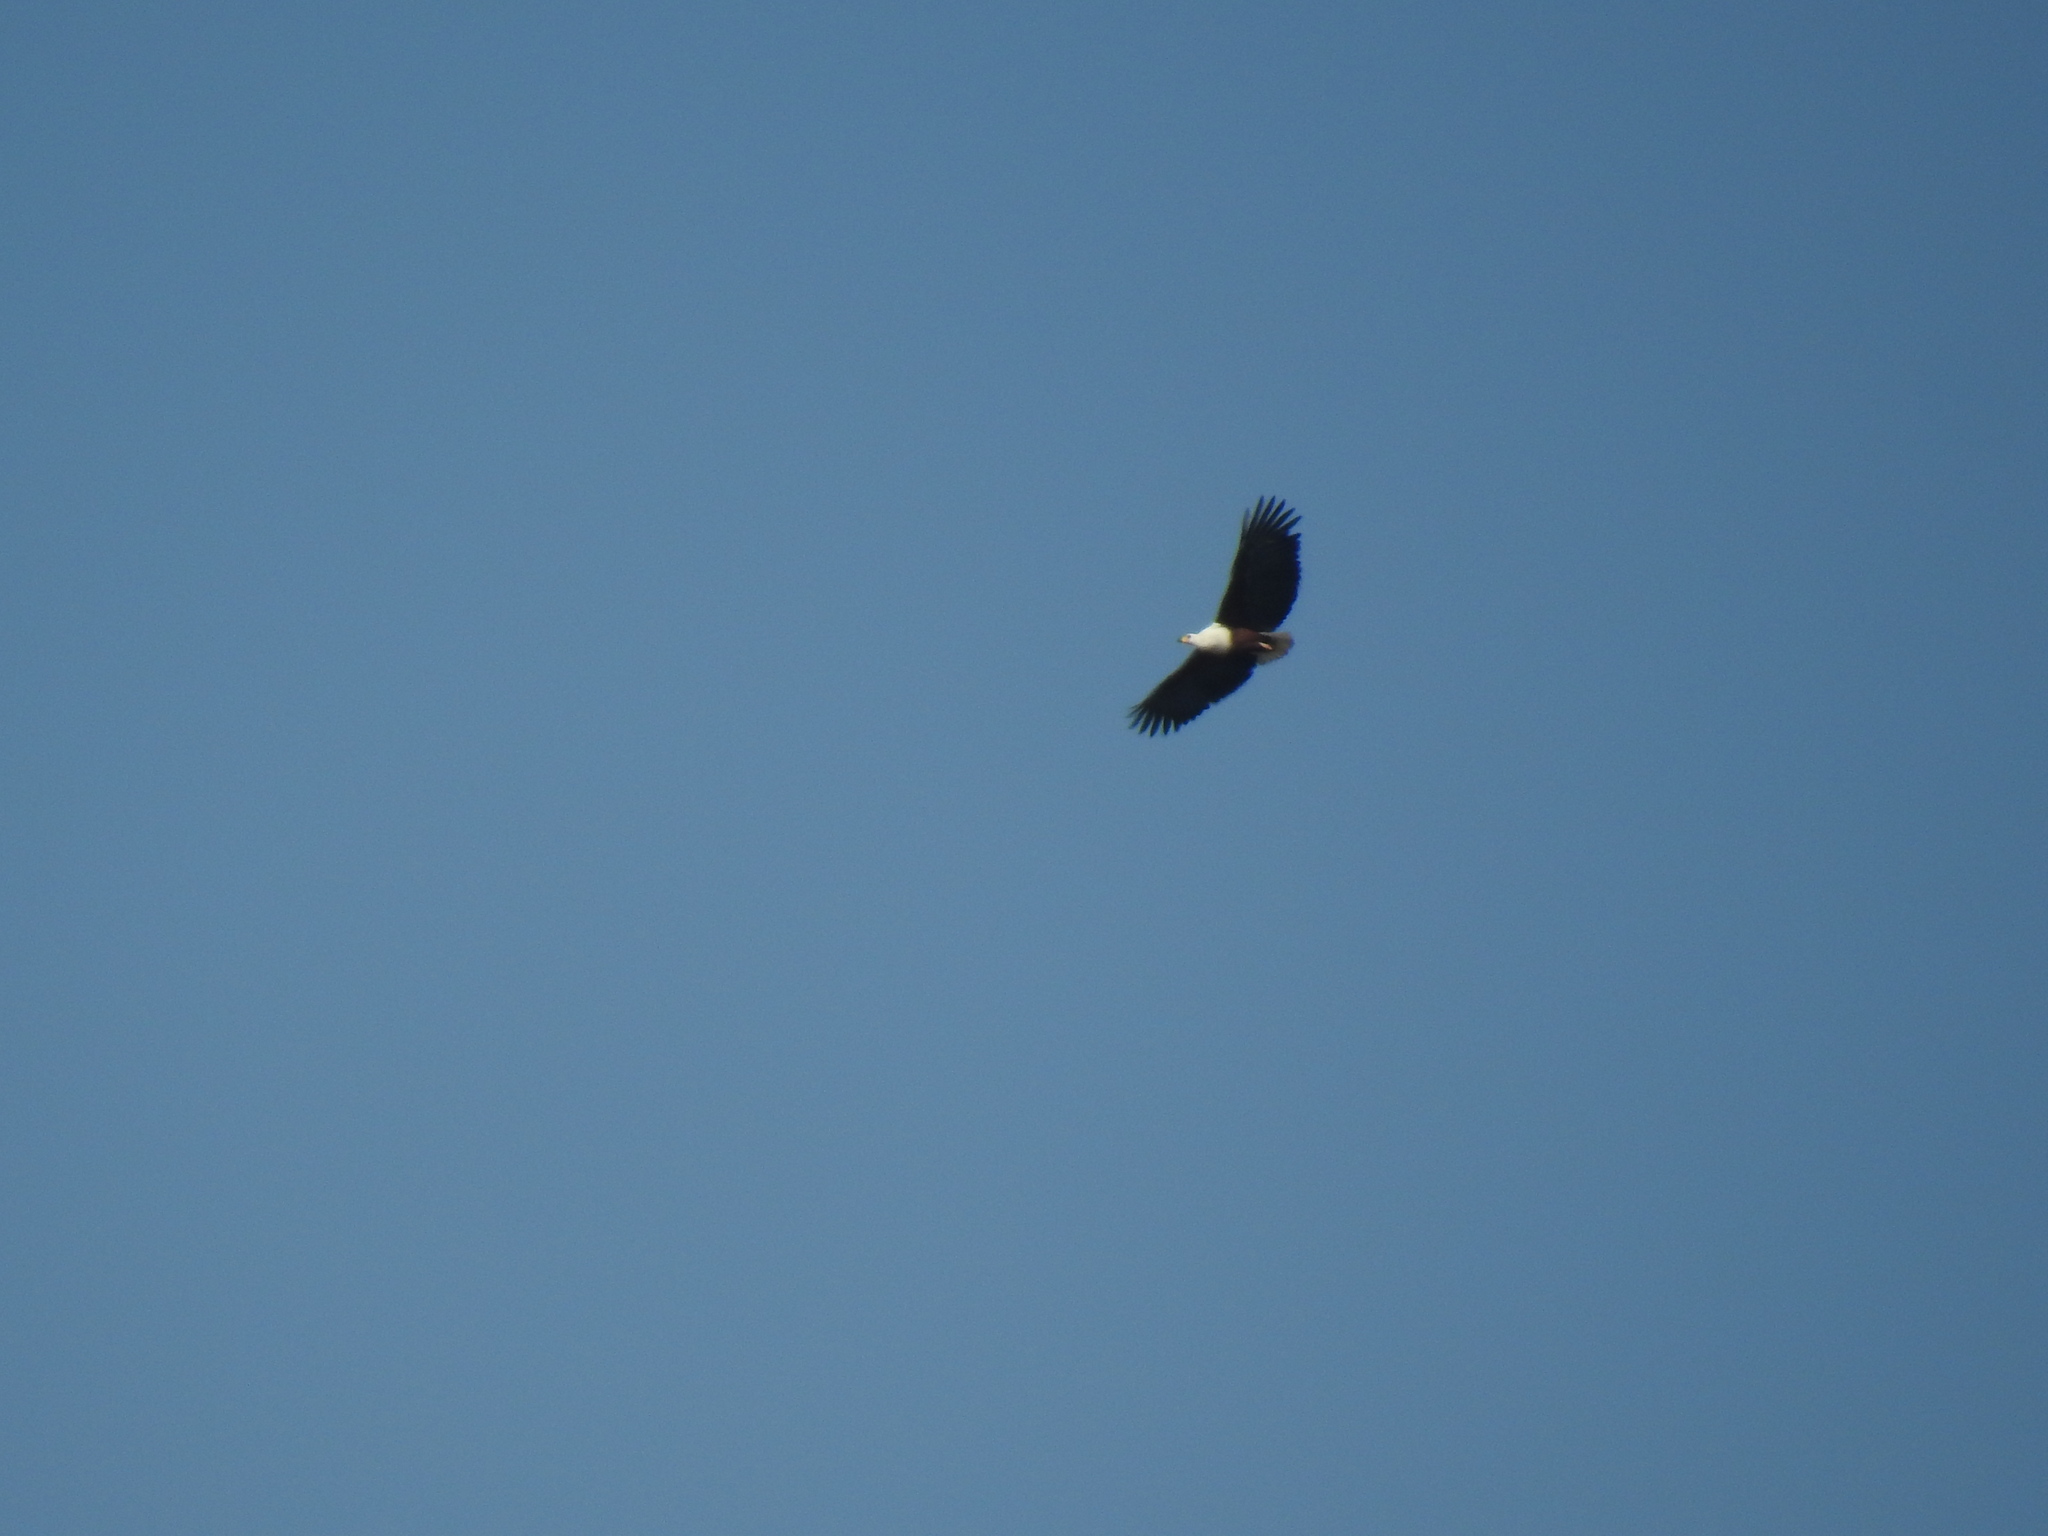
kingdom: Animalia
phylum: Chordata
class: Aves
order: Accipitriformes
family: Accipitridae
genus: Haliaeetus
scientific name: Haliaeetus vocifer
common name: African fish eagle
